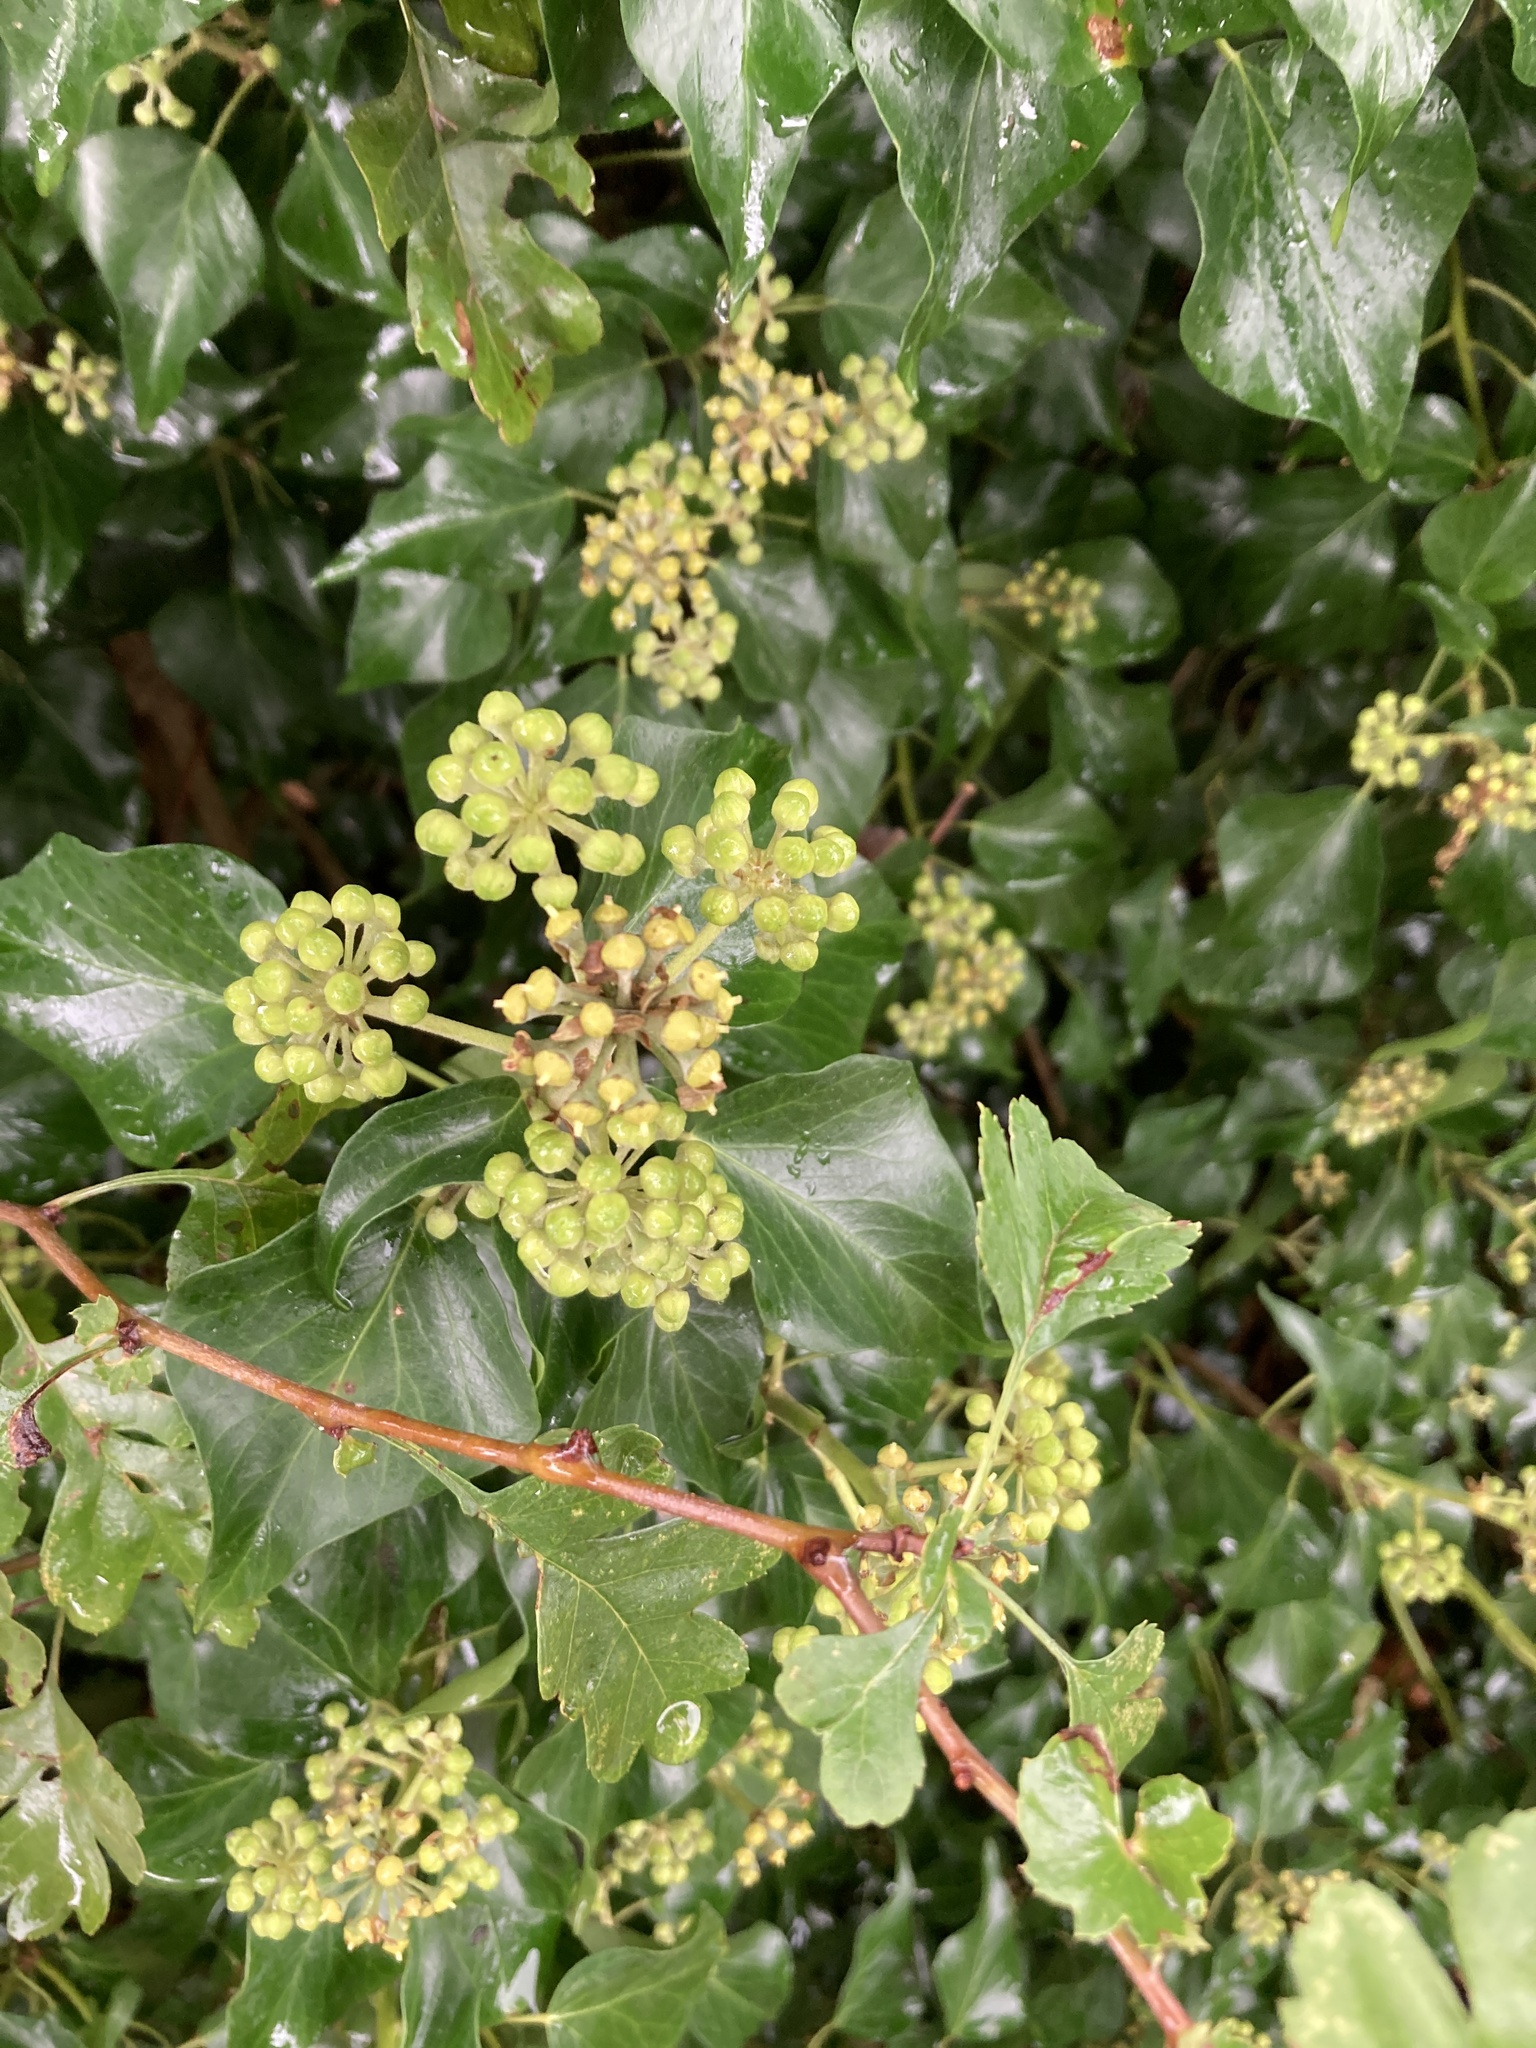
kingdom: Plantae
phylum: Tracheophyta
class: Magnoliopsida
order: Apiales
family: Araliaceae
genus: Hedera
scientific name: Hedera helix
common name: Ivy
